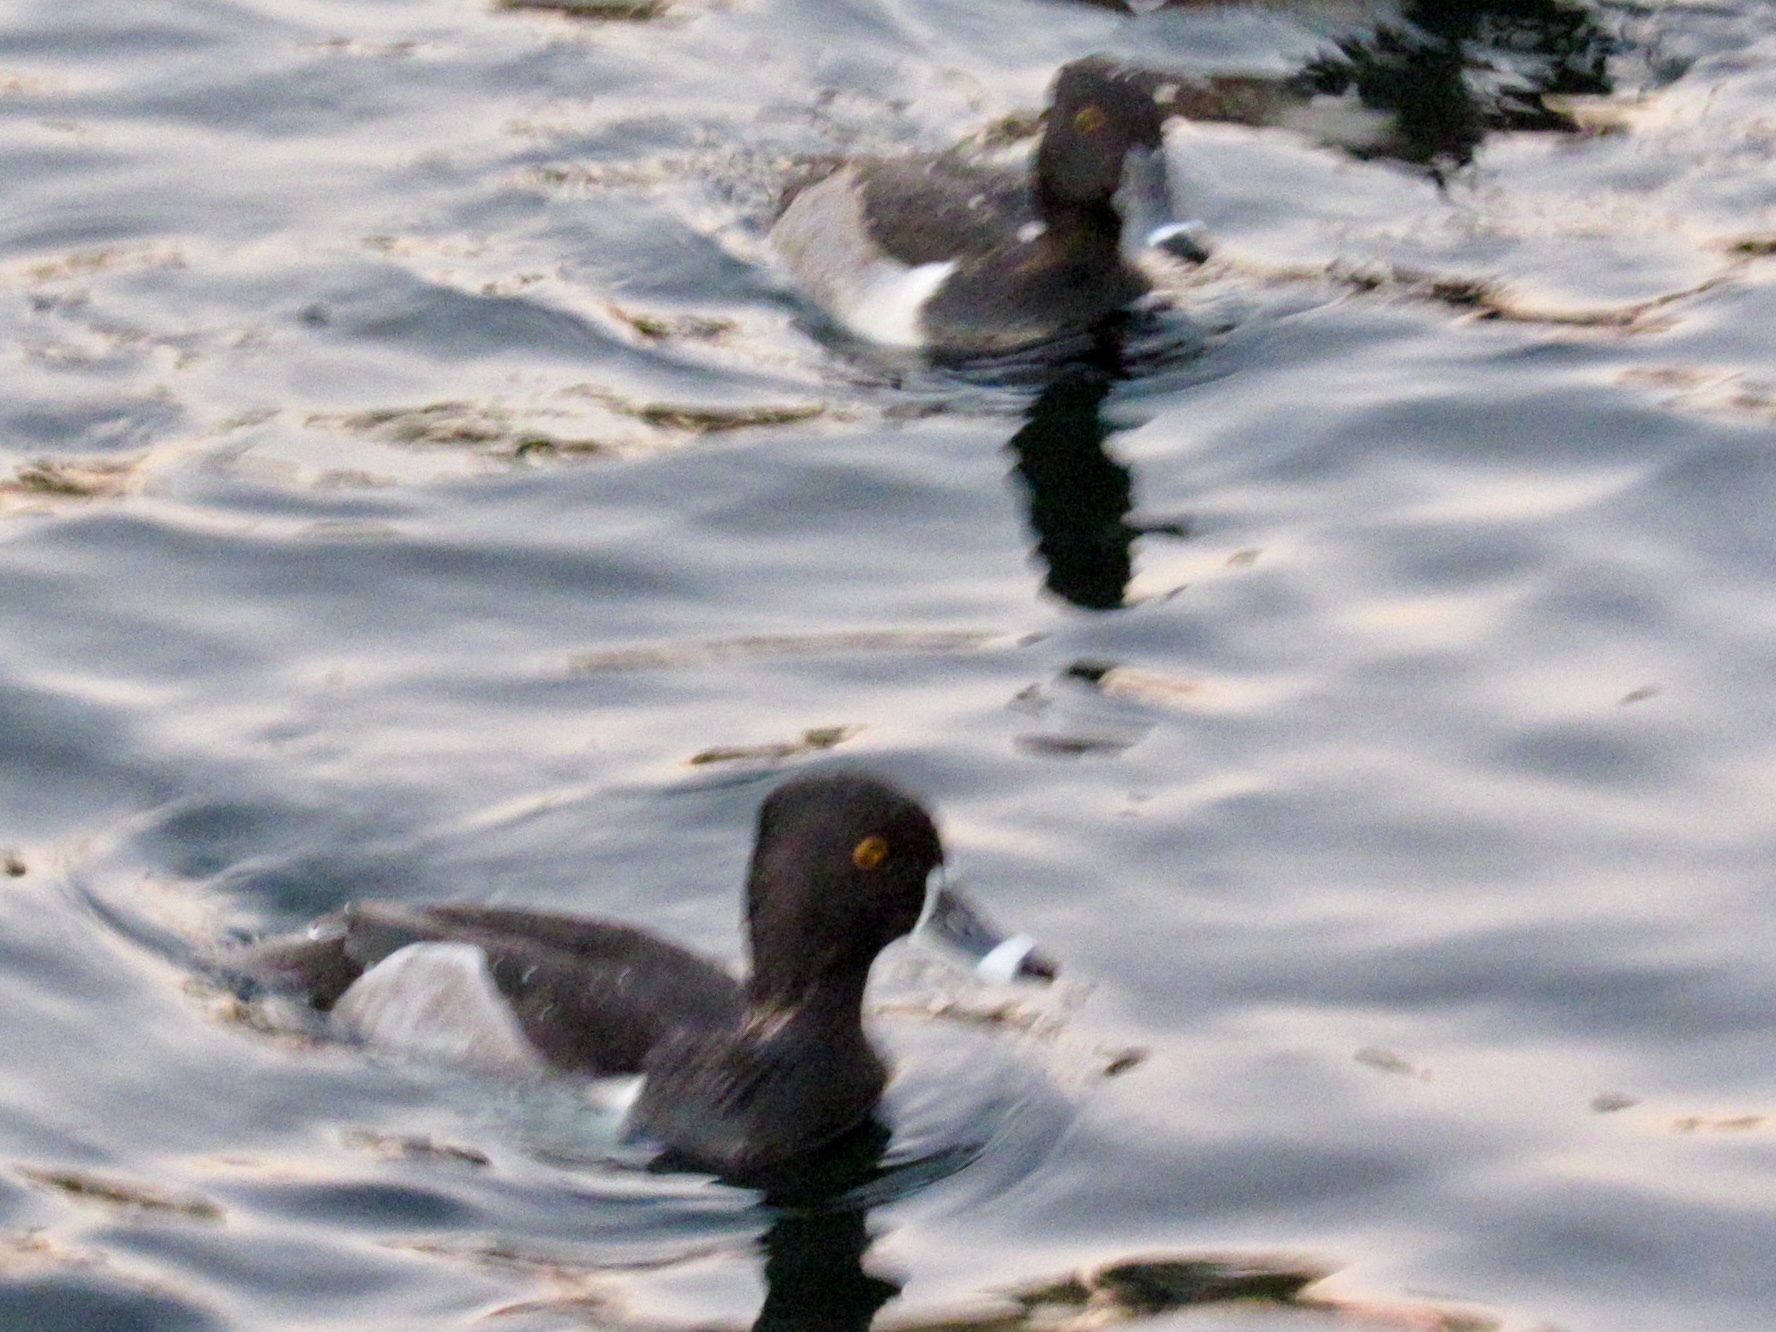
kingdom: Animalia
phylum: Chordata
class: Aves
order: Anseriformes
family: Anatidae
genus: Aythya
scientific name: Aythya collaris
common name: Ring-necked duck
